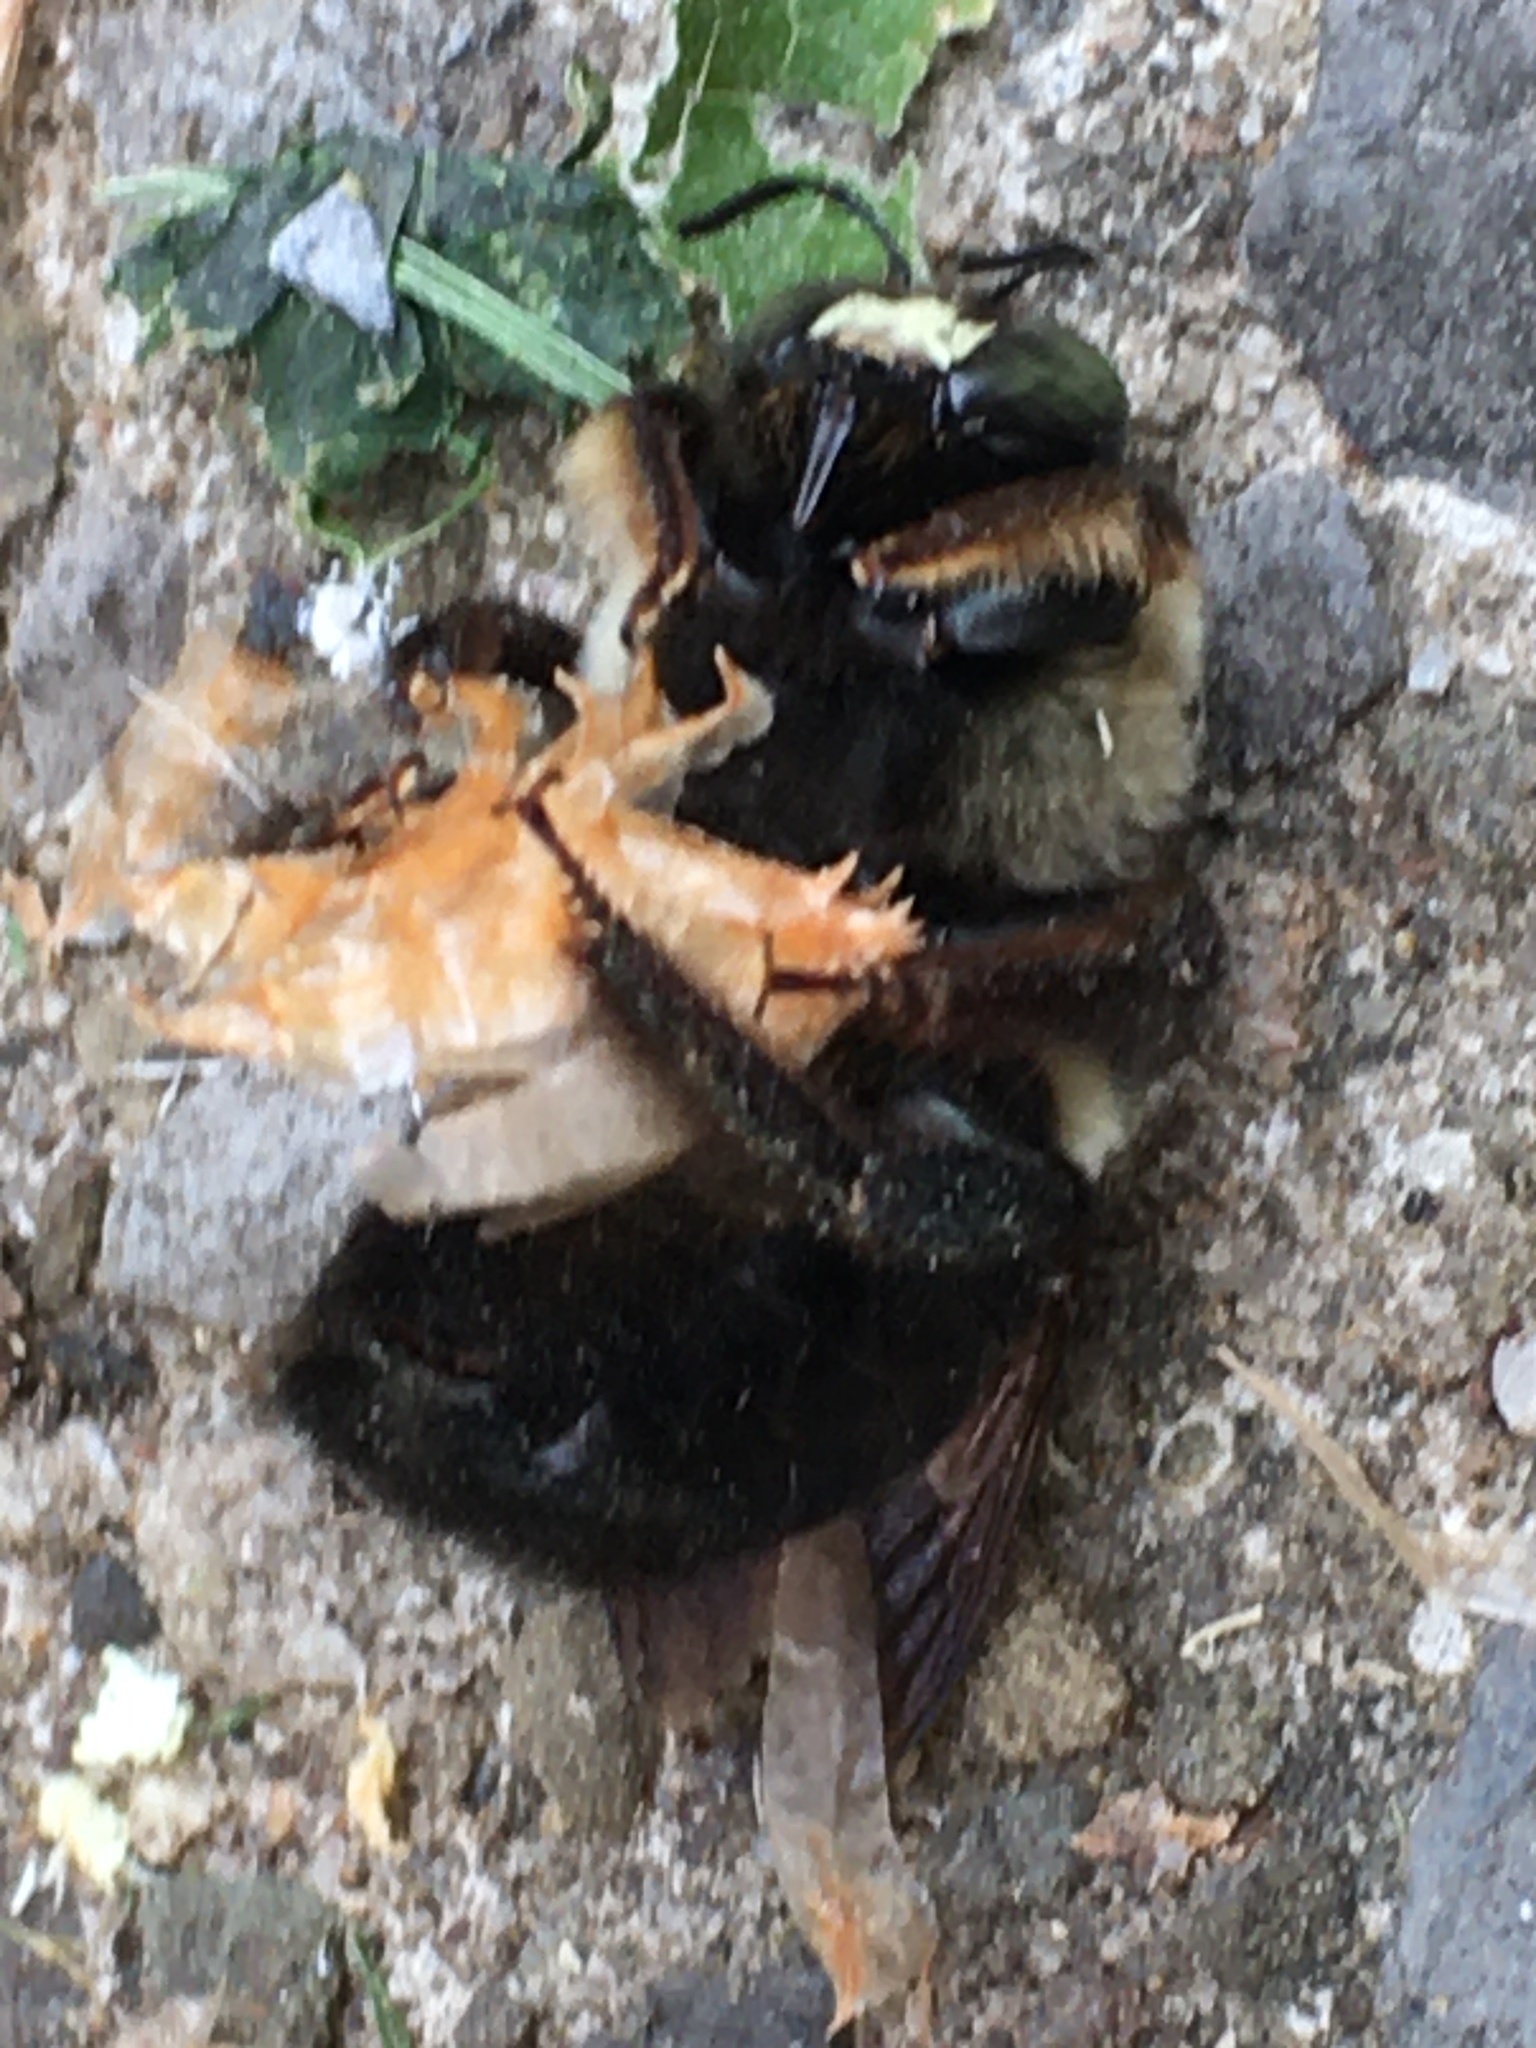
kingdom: Animalia
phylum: Arthropoda
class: Insecta
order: Hymenoptera
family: Apidae
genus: Xylocopa
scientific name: Xylocopa virginica
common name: Carpenter bee
